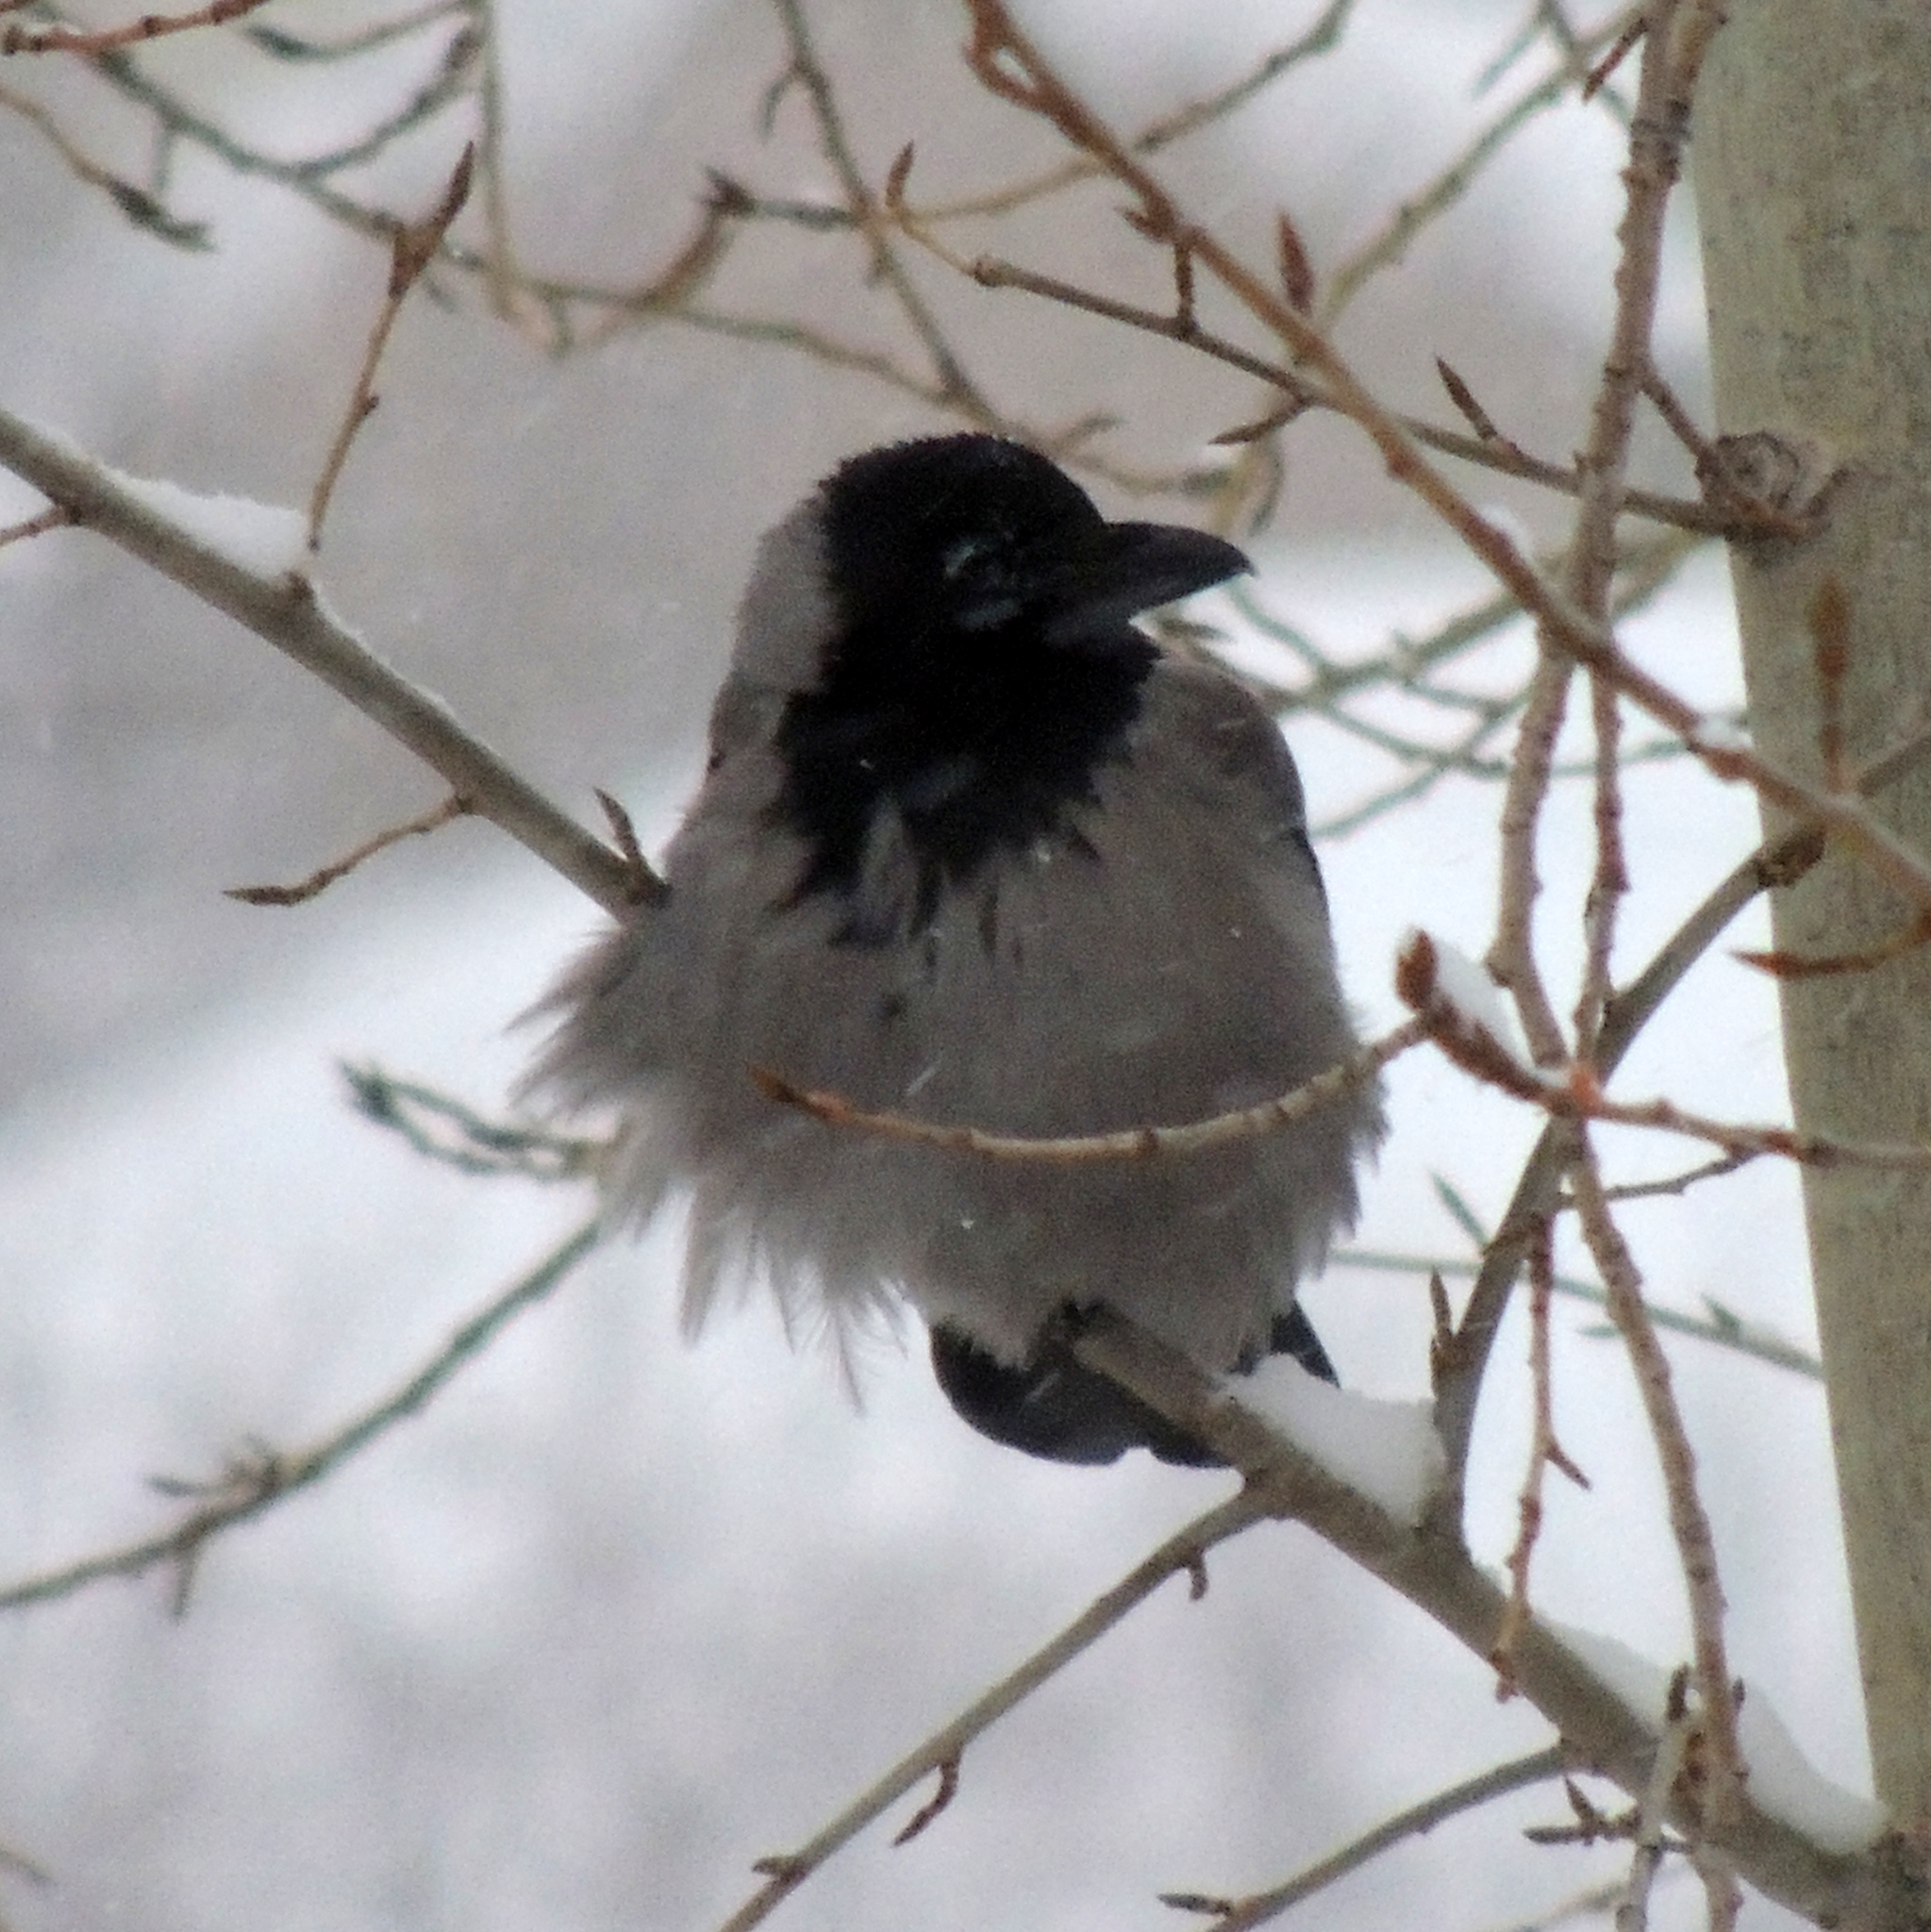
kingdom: Animalia
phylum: Chordata
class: Aves
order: Passeriformes
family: Corvidae
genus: Corvus
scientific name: Corvus cornix
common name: Hooded crow
